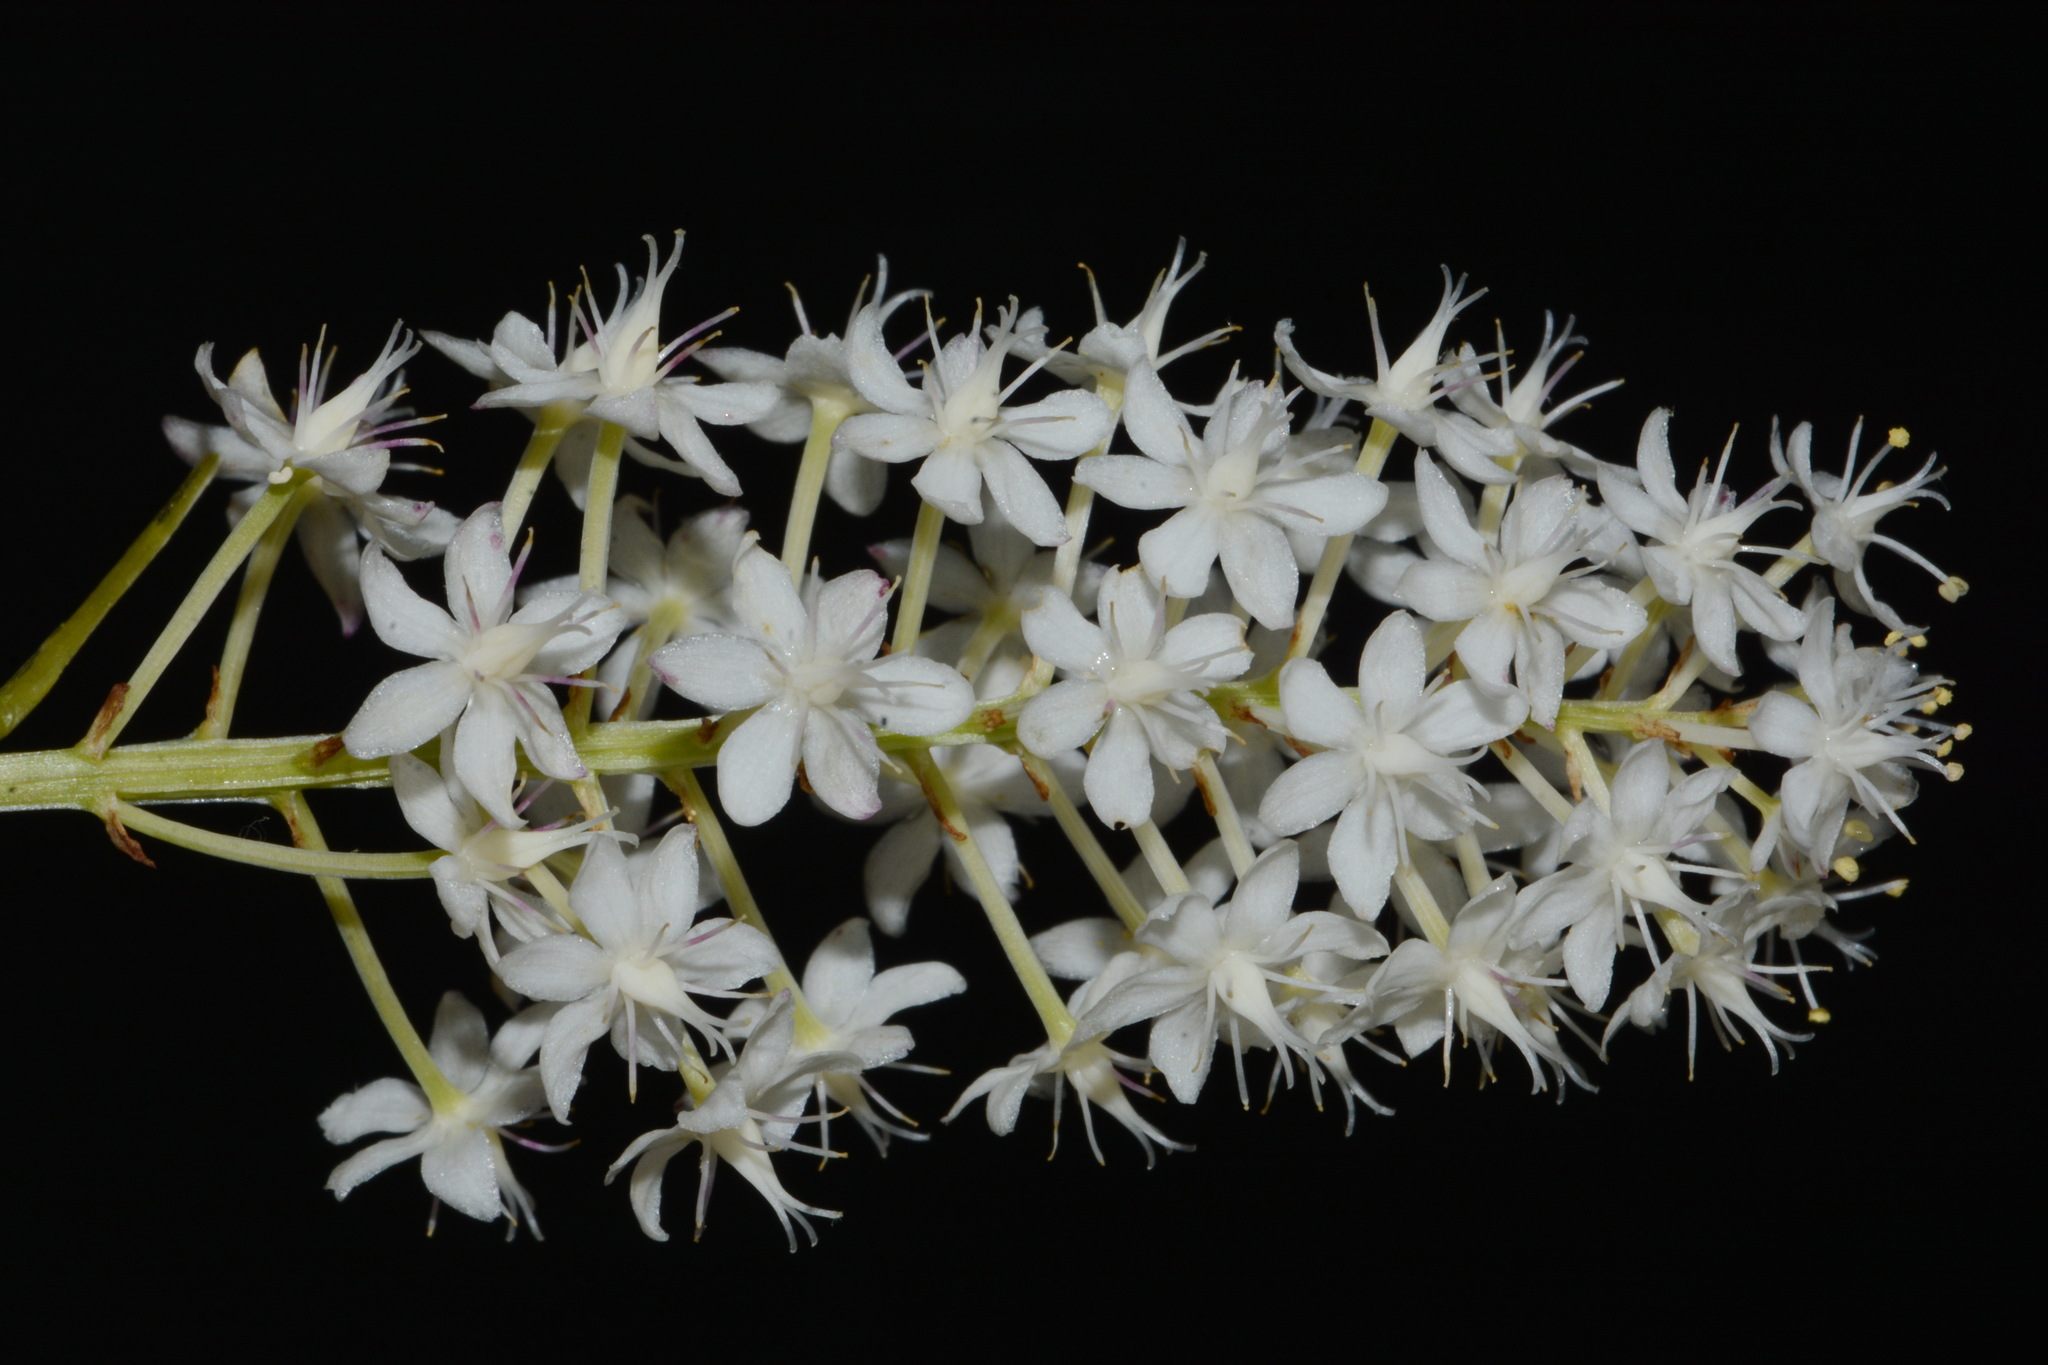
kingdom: Plantae
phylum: Tracheophyta
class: Liliopsida
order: Liliales
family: Melanthiaceae
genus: Stenanthium
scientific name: Stenanthium densum
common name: Crow-poison
